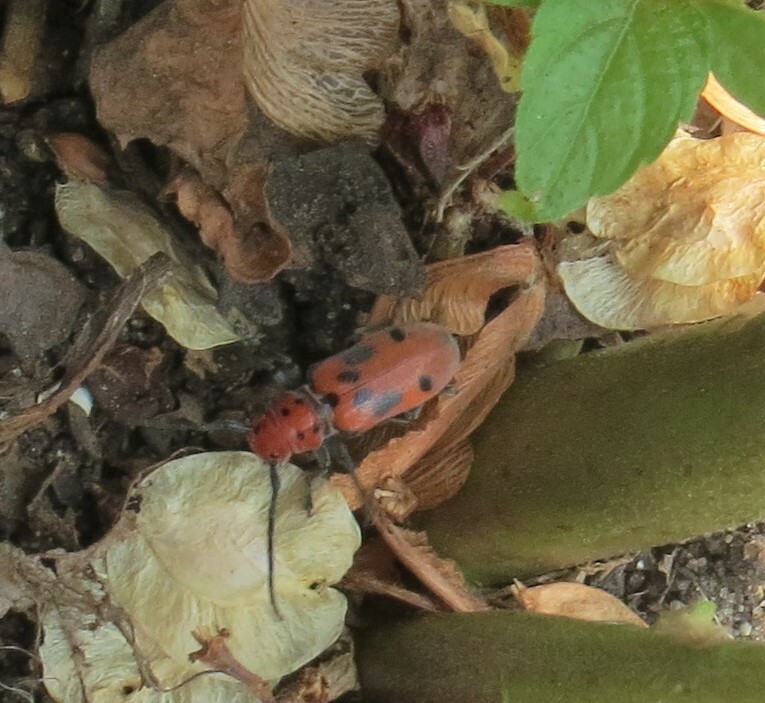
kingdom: Animalia
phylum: Arthropoda
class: Insecta
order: Coleoptera
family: Cerambycidae
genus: Tetraopes
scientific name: Tetraopes tetrophthalmus
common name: Red milkweed beetle
